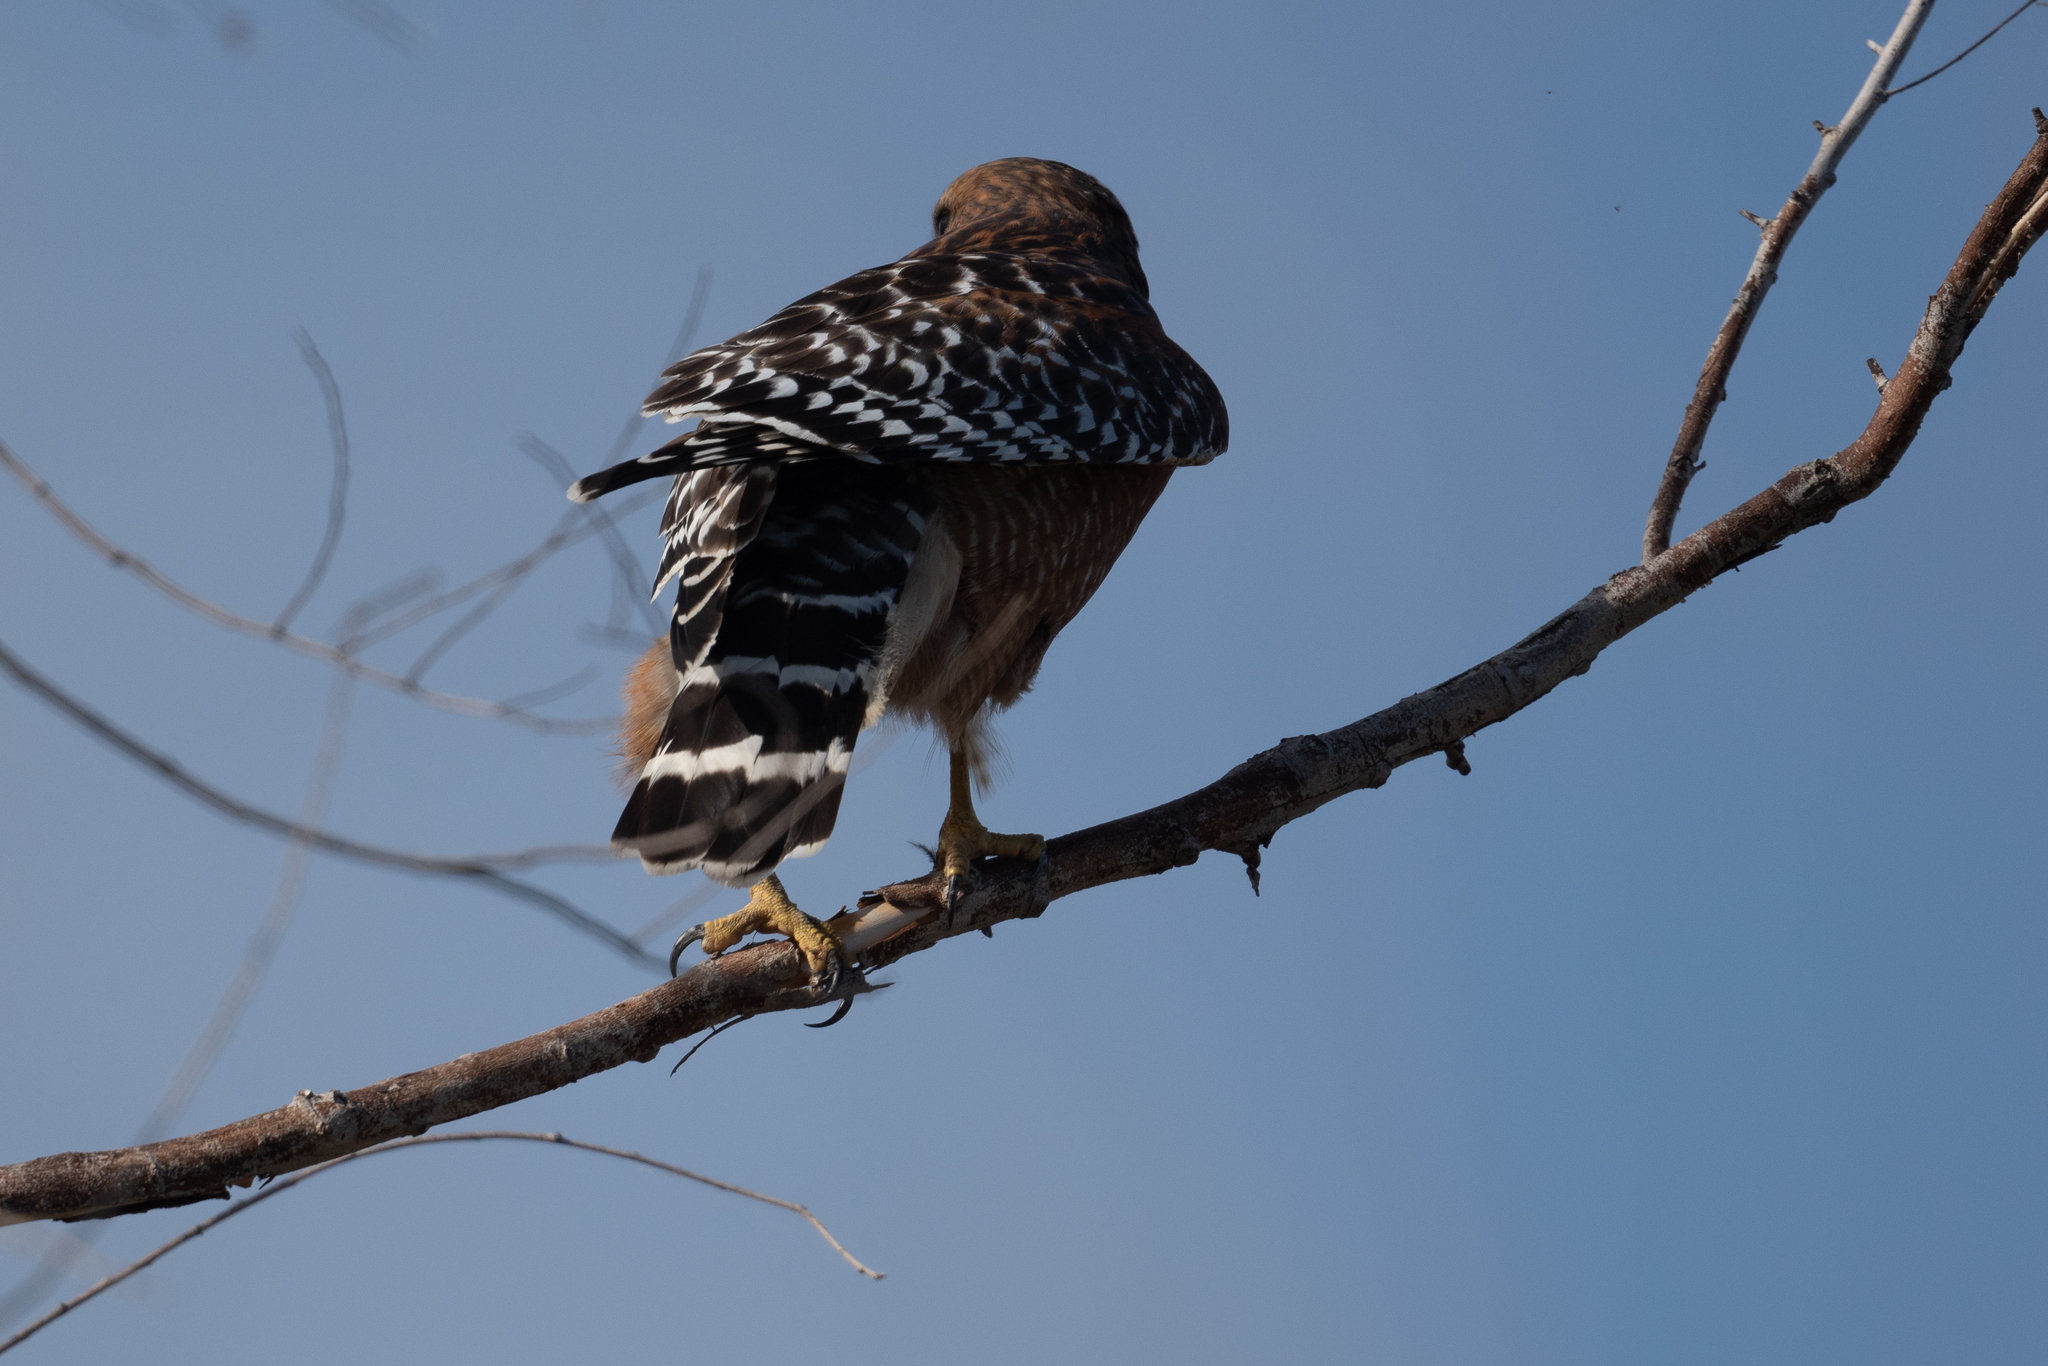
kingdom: Animalia
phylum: Chordata
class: Aves
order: Accipitriformes
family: Accipitridae
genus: Buteo
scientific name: Buteo lineatus
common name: Red-shouldered hawk
